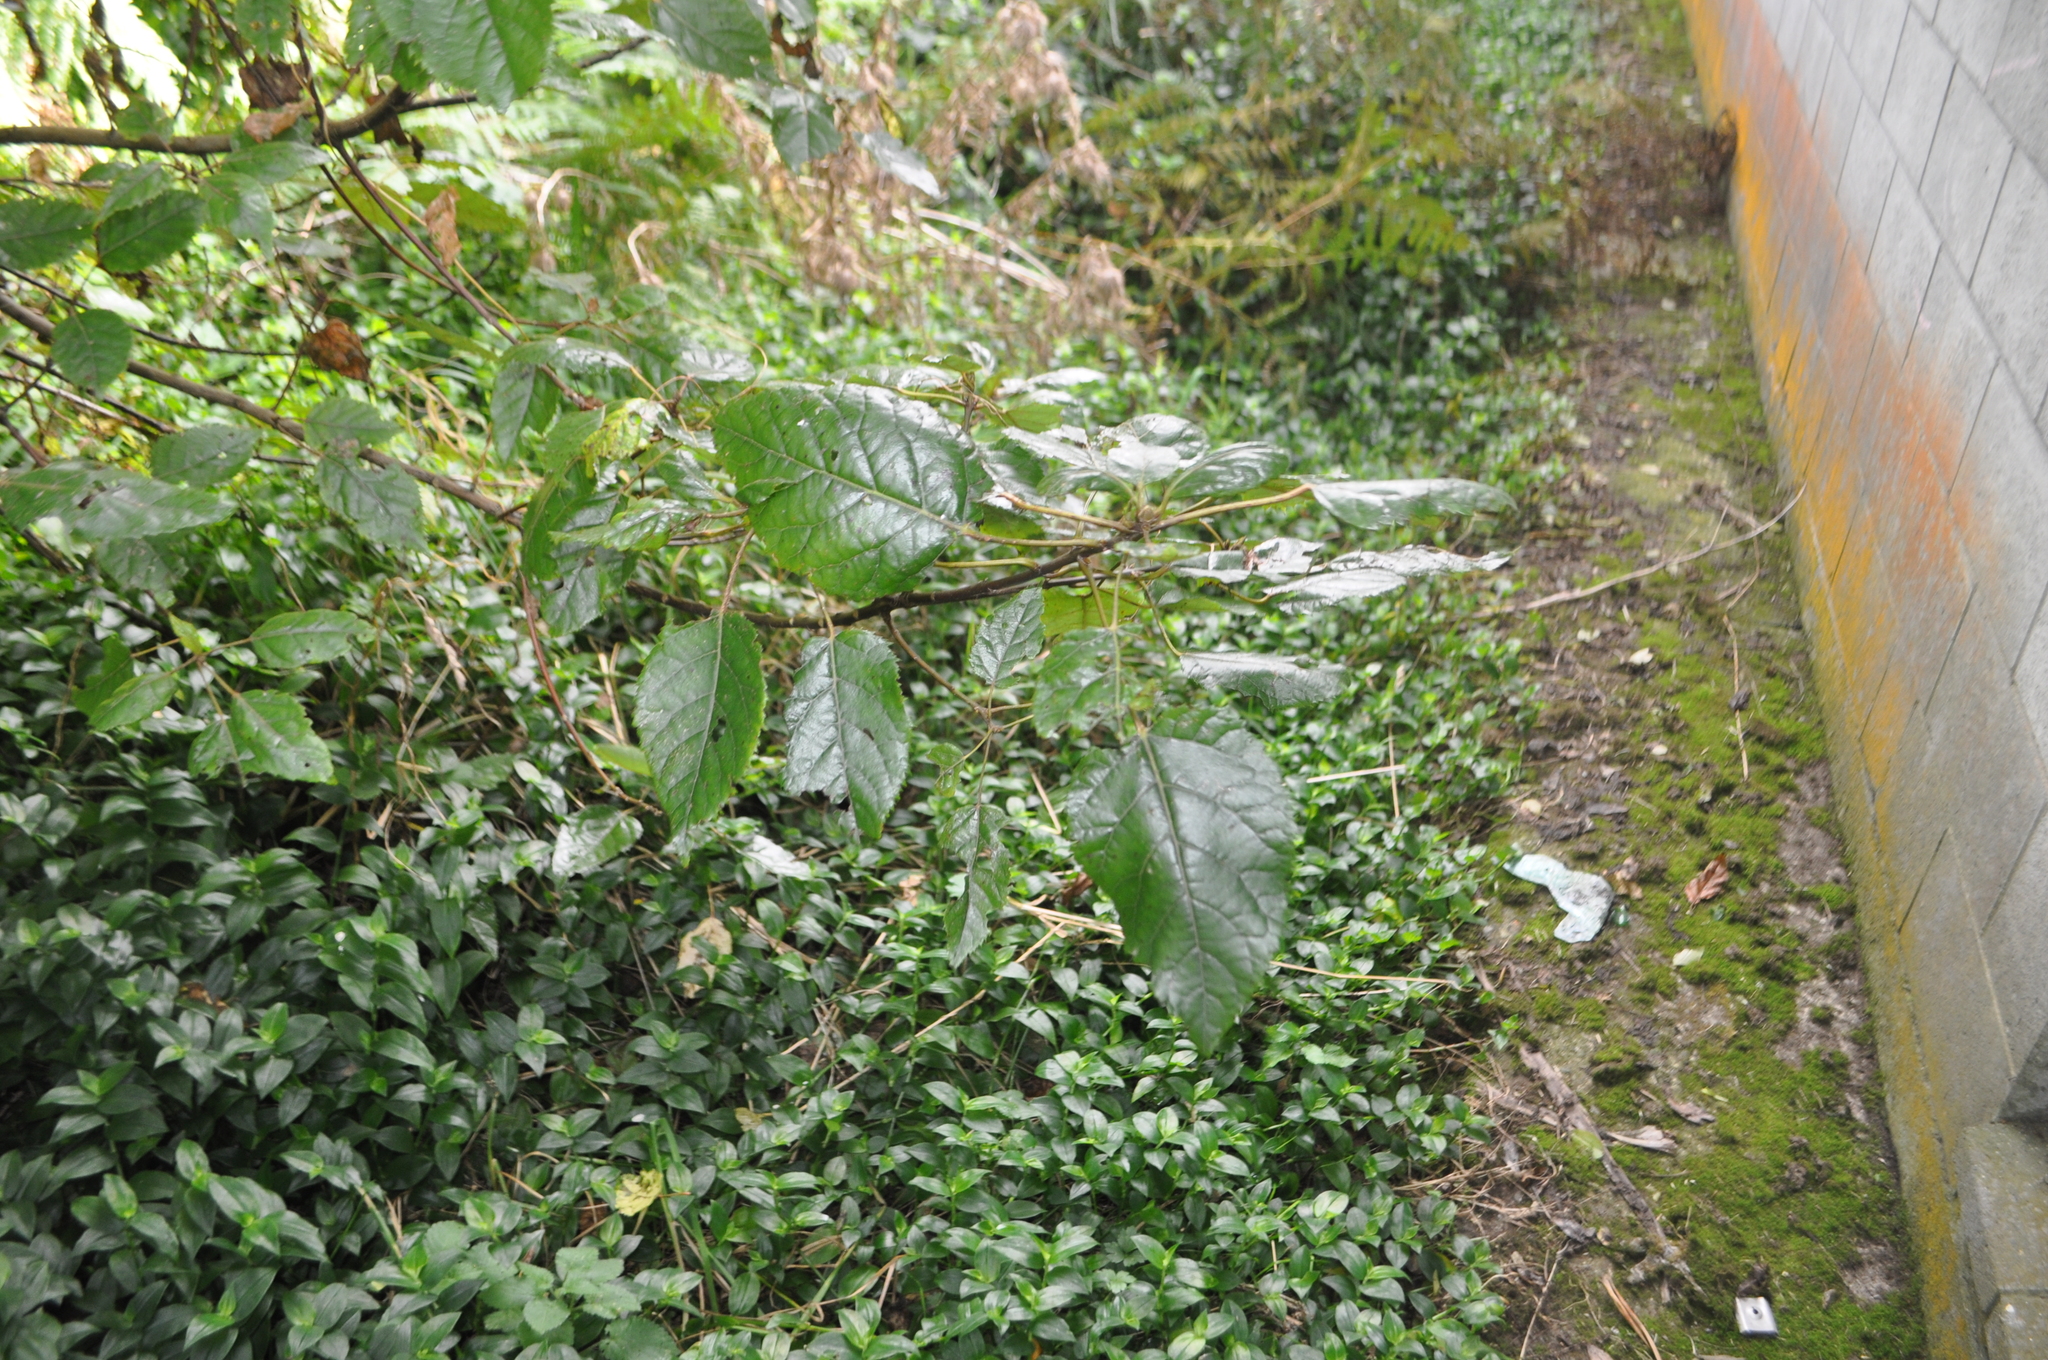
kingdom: Plantae
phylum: Tracheophyta
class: Magnoliopsida
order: Oxalidales
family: Elaeocarpaceae
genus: Aristotelia
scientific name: Aristotelia serrata
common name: New zealand wineberry
